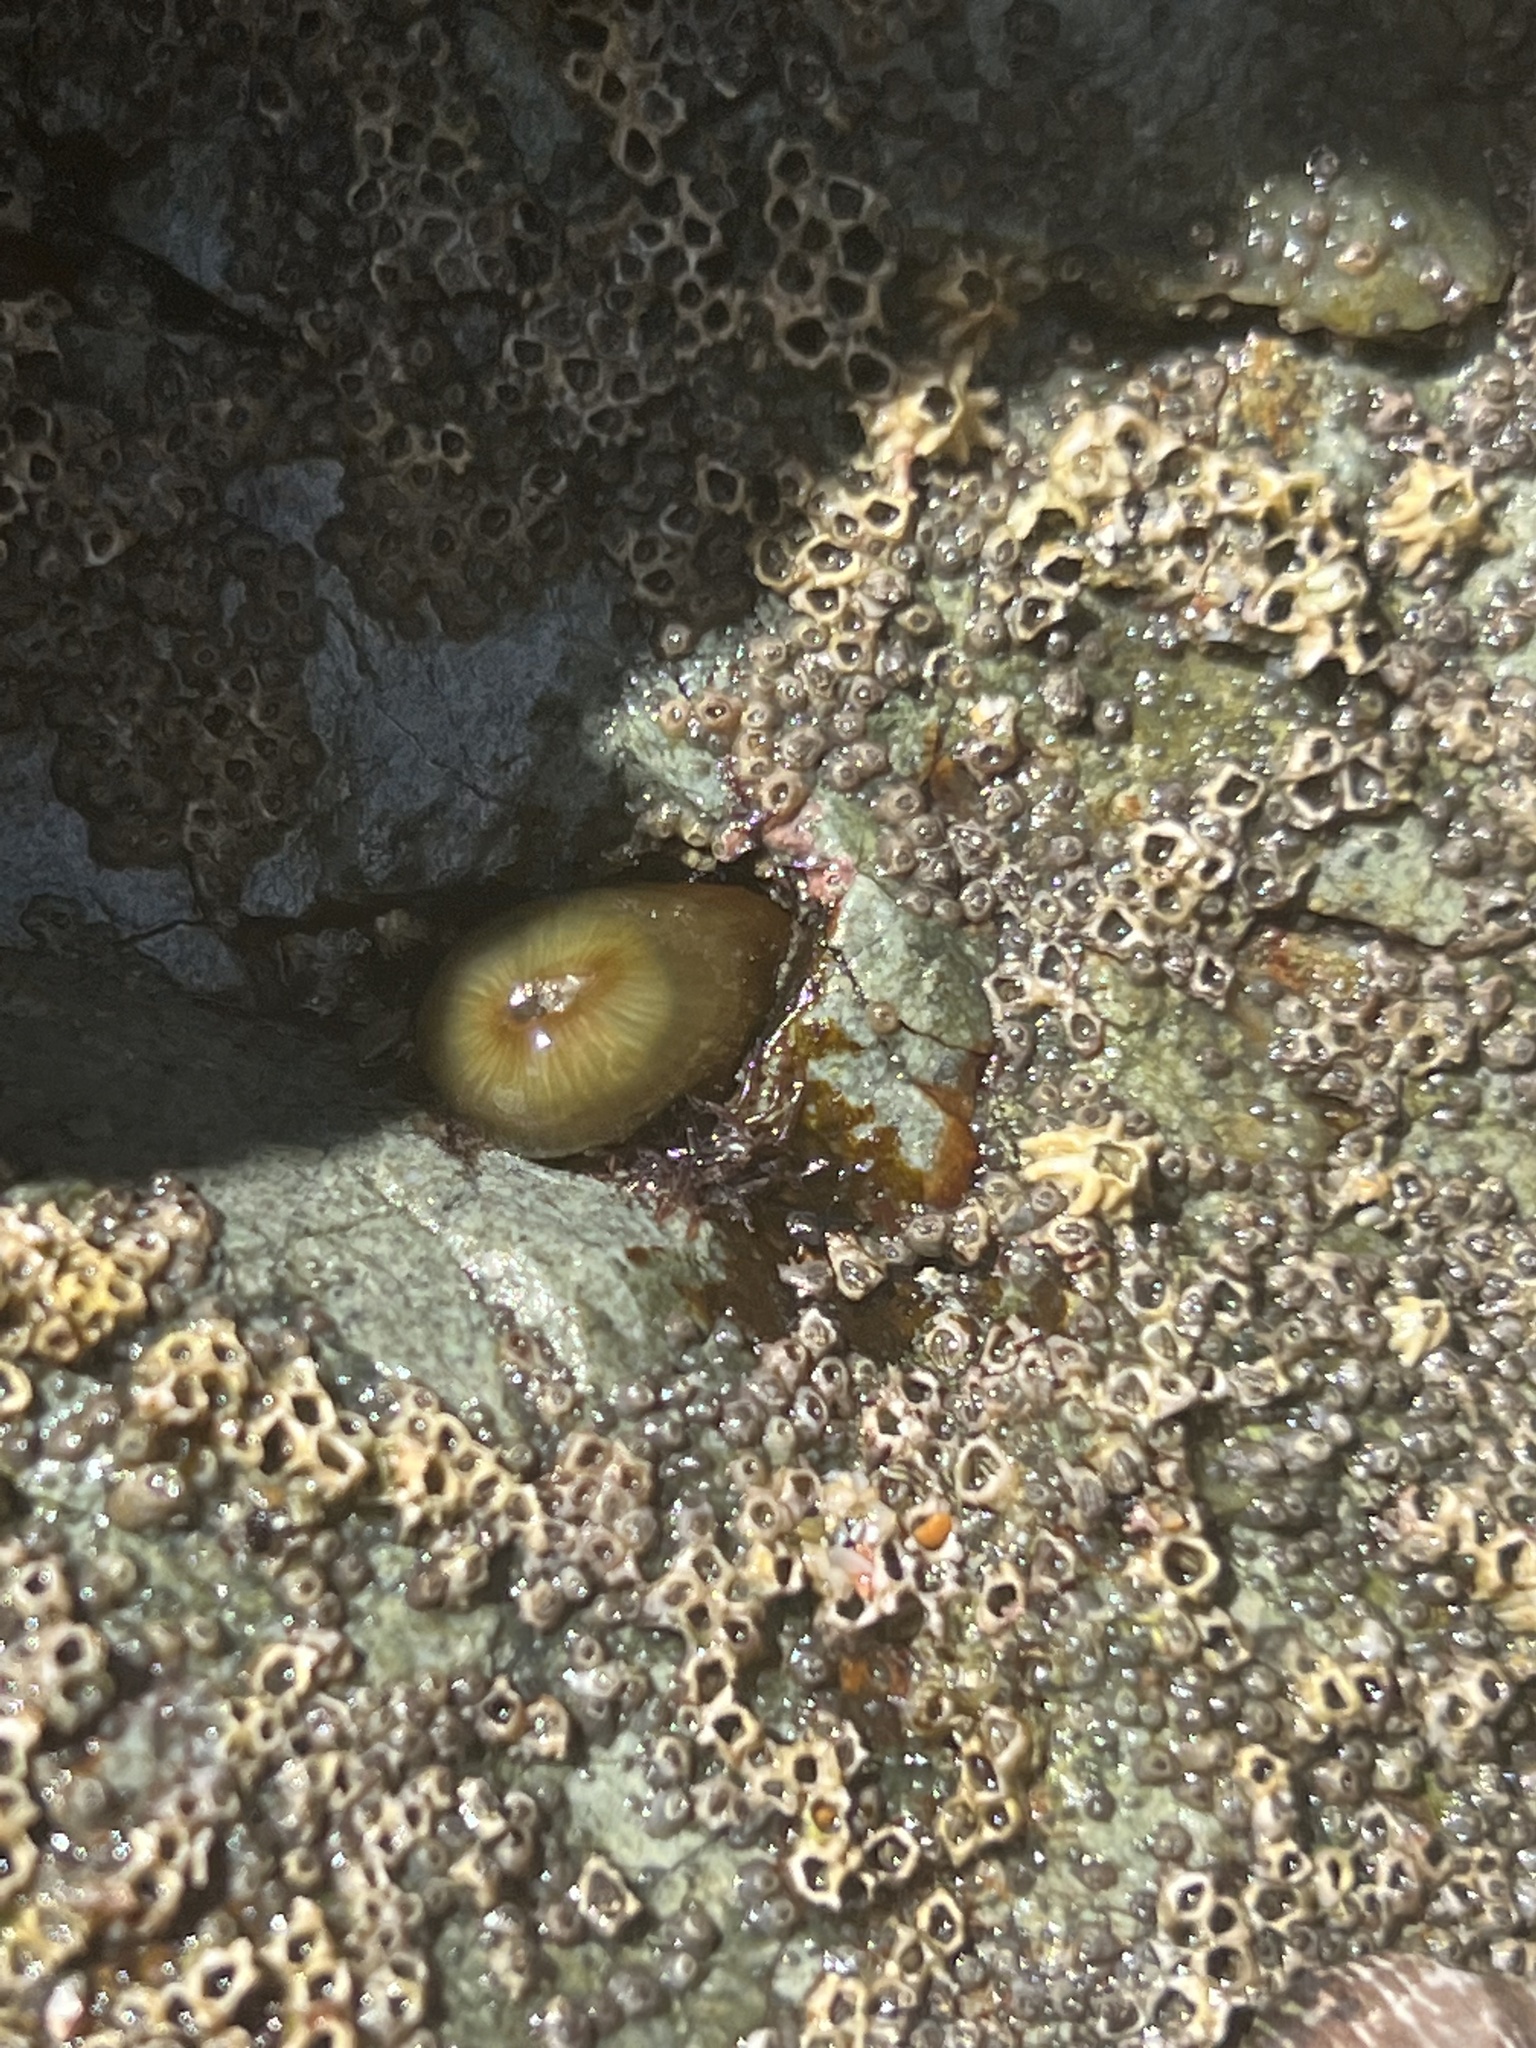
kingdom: Animalia
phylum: Cnidaria
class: Anthozoa
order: Actiniaria
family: Actiniidae
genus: Isactinia
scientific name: Isactinia olivacea
